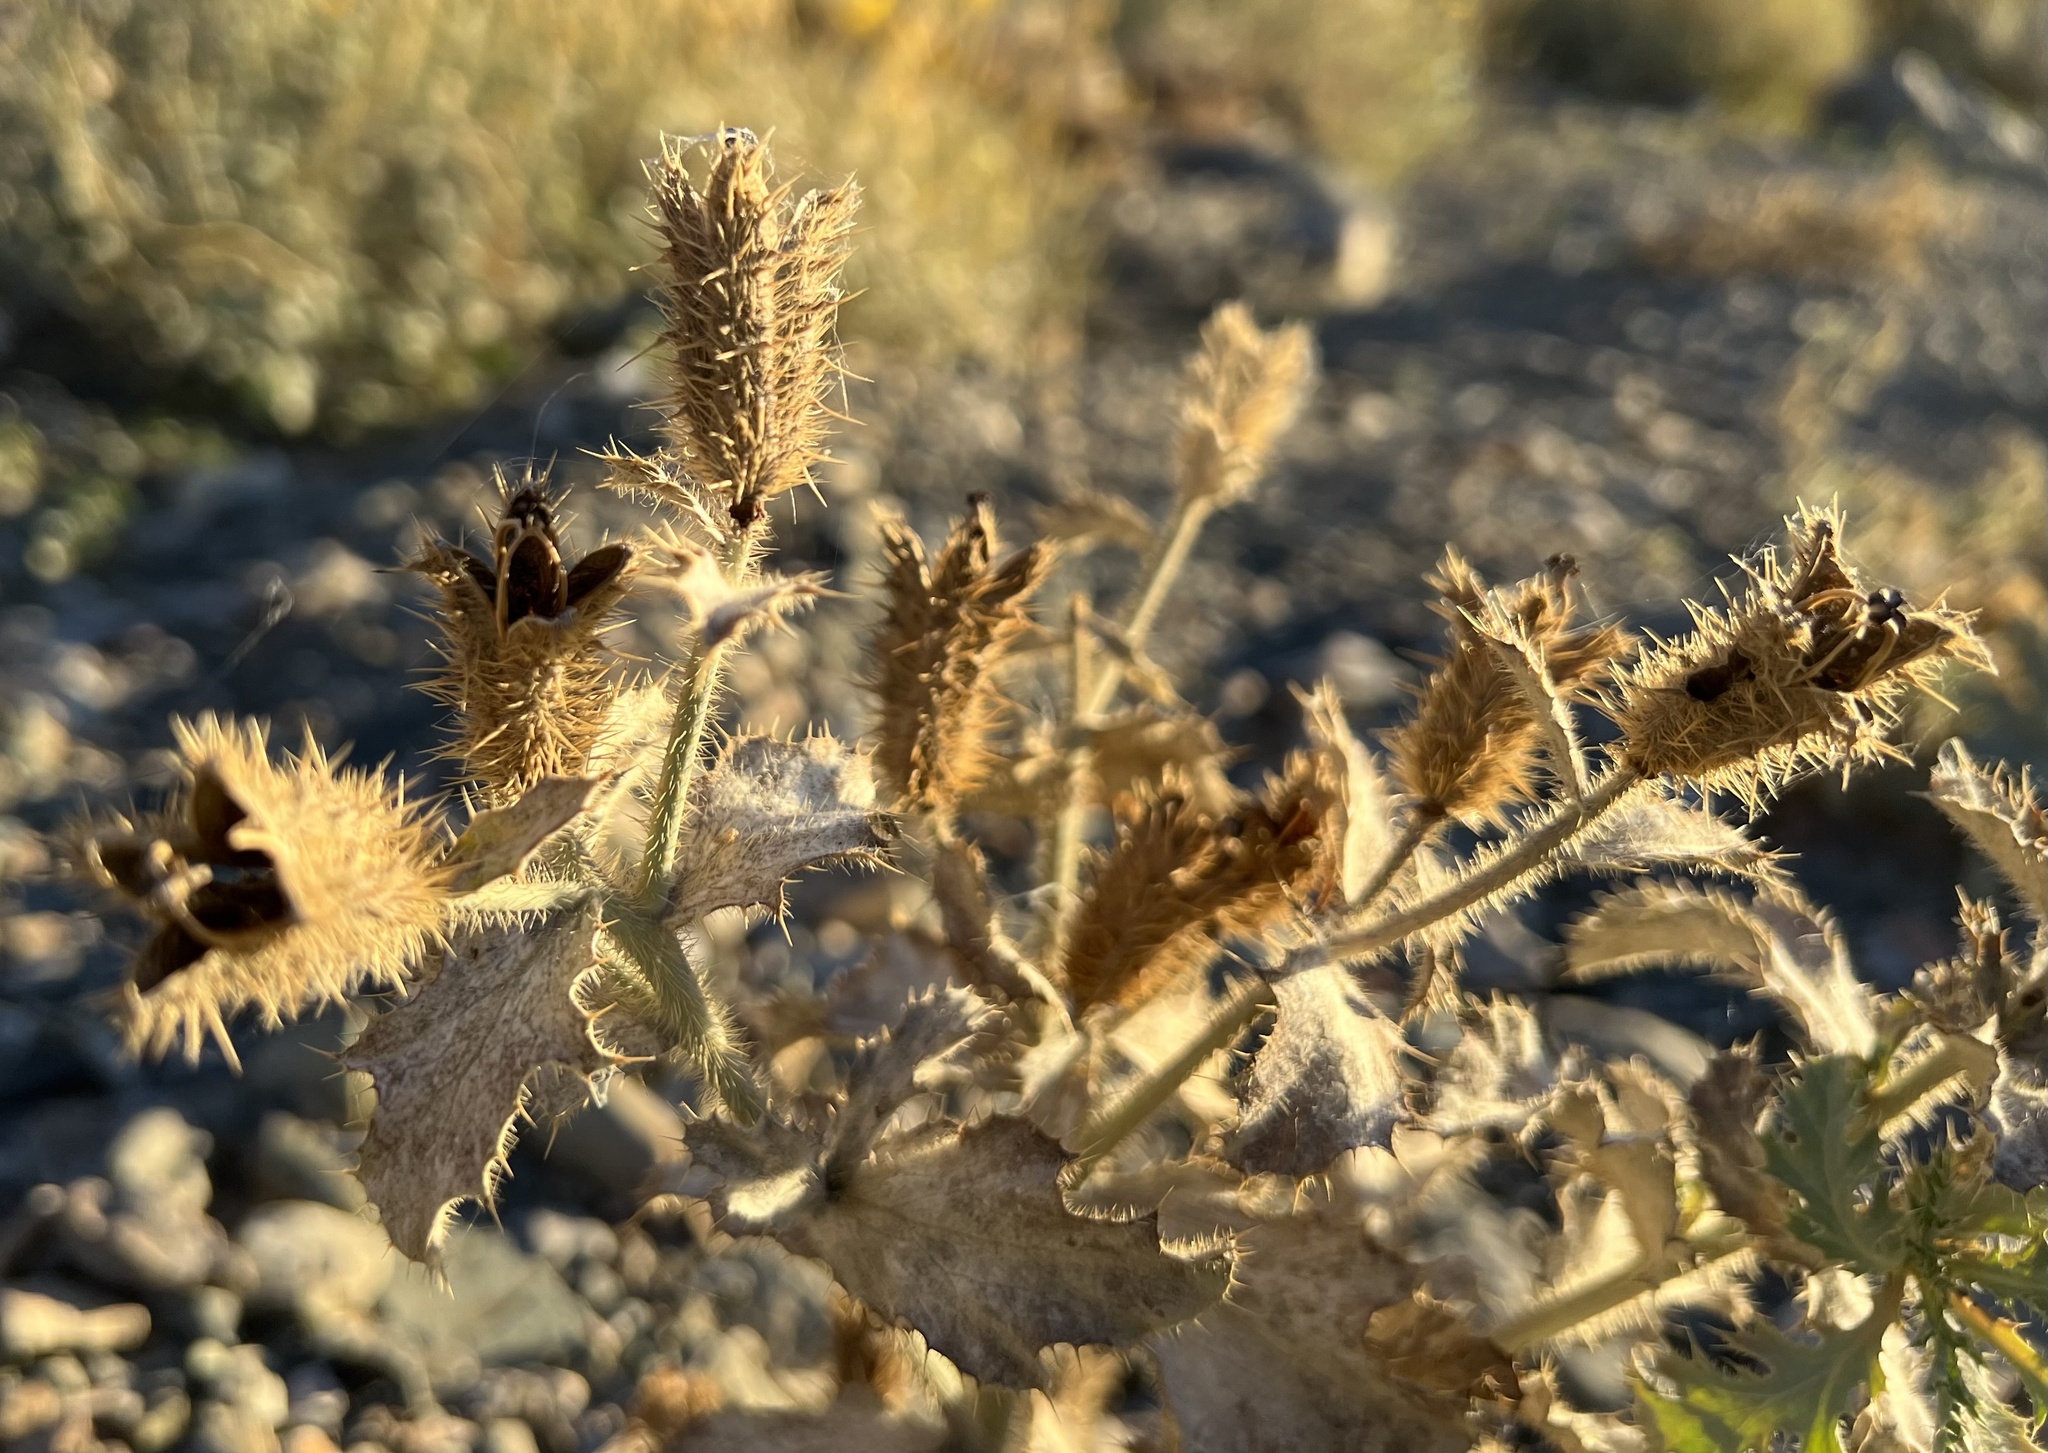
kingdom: Plantae
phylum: Tracheophyta
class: Magnoliopsida
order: Ranunculales
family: Papaveraceae
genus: Argemone
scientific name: Argemone munita
